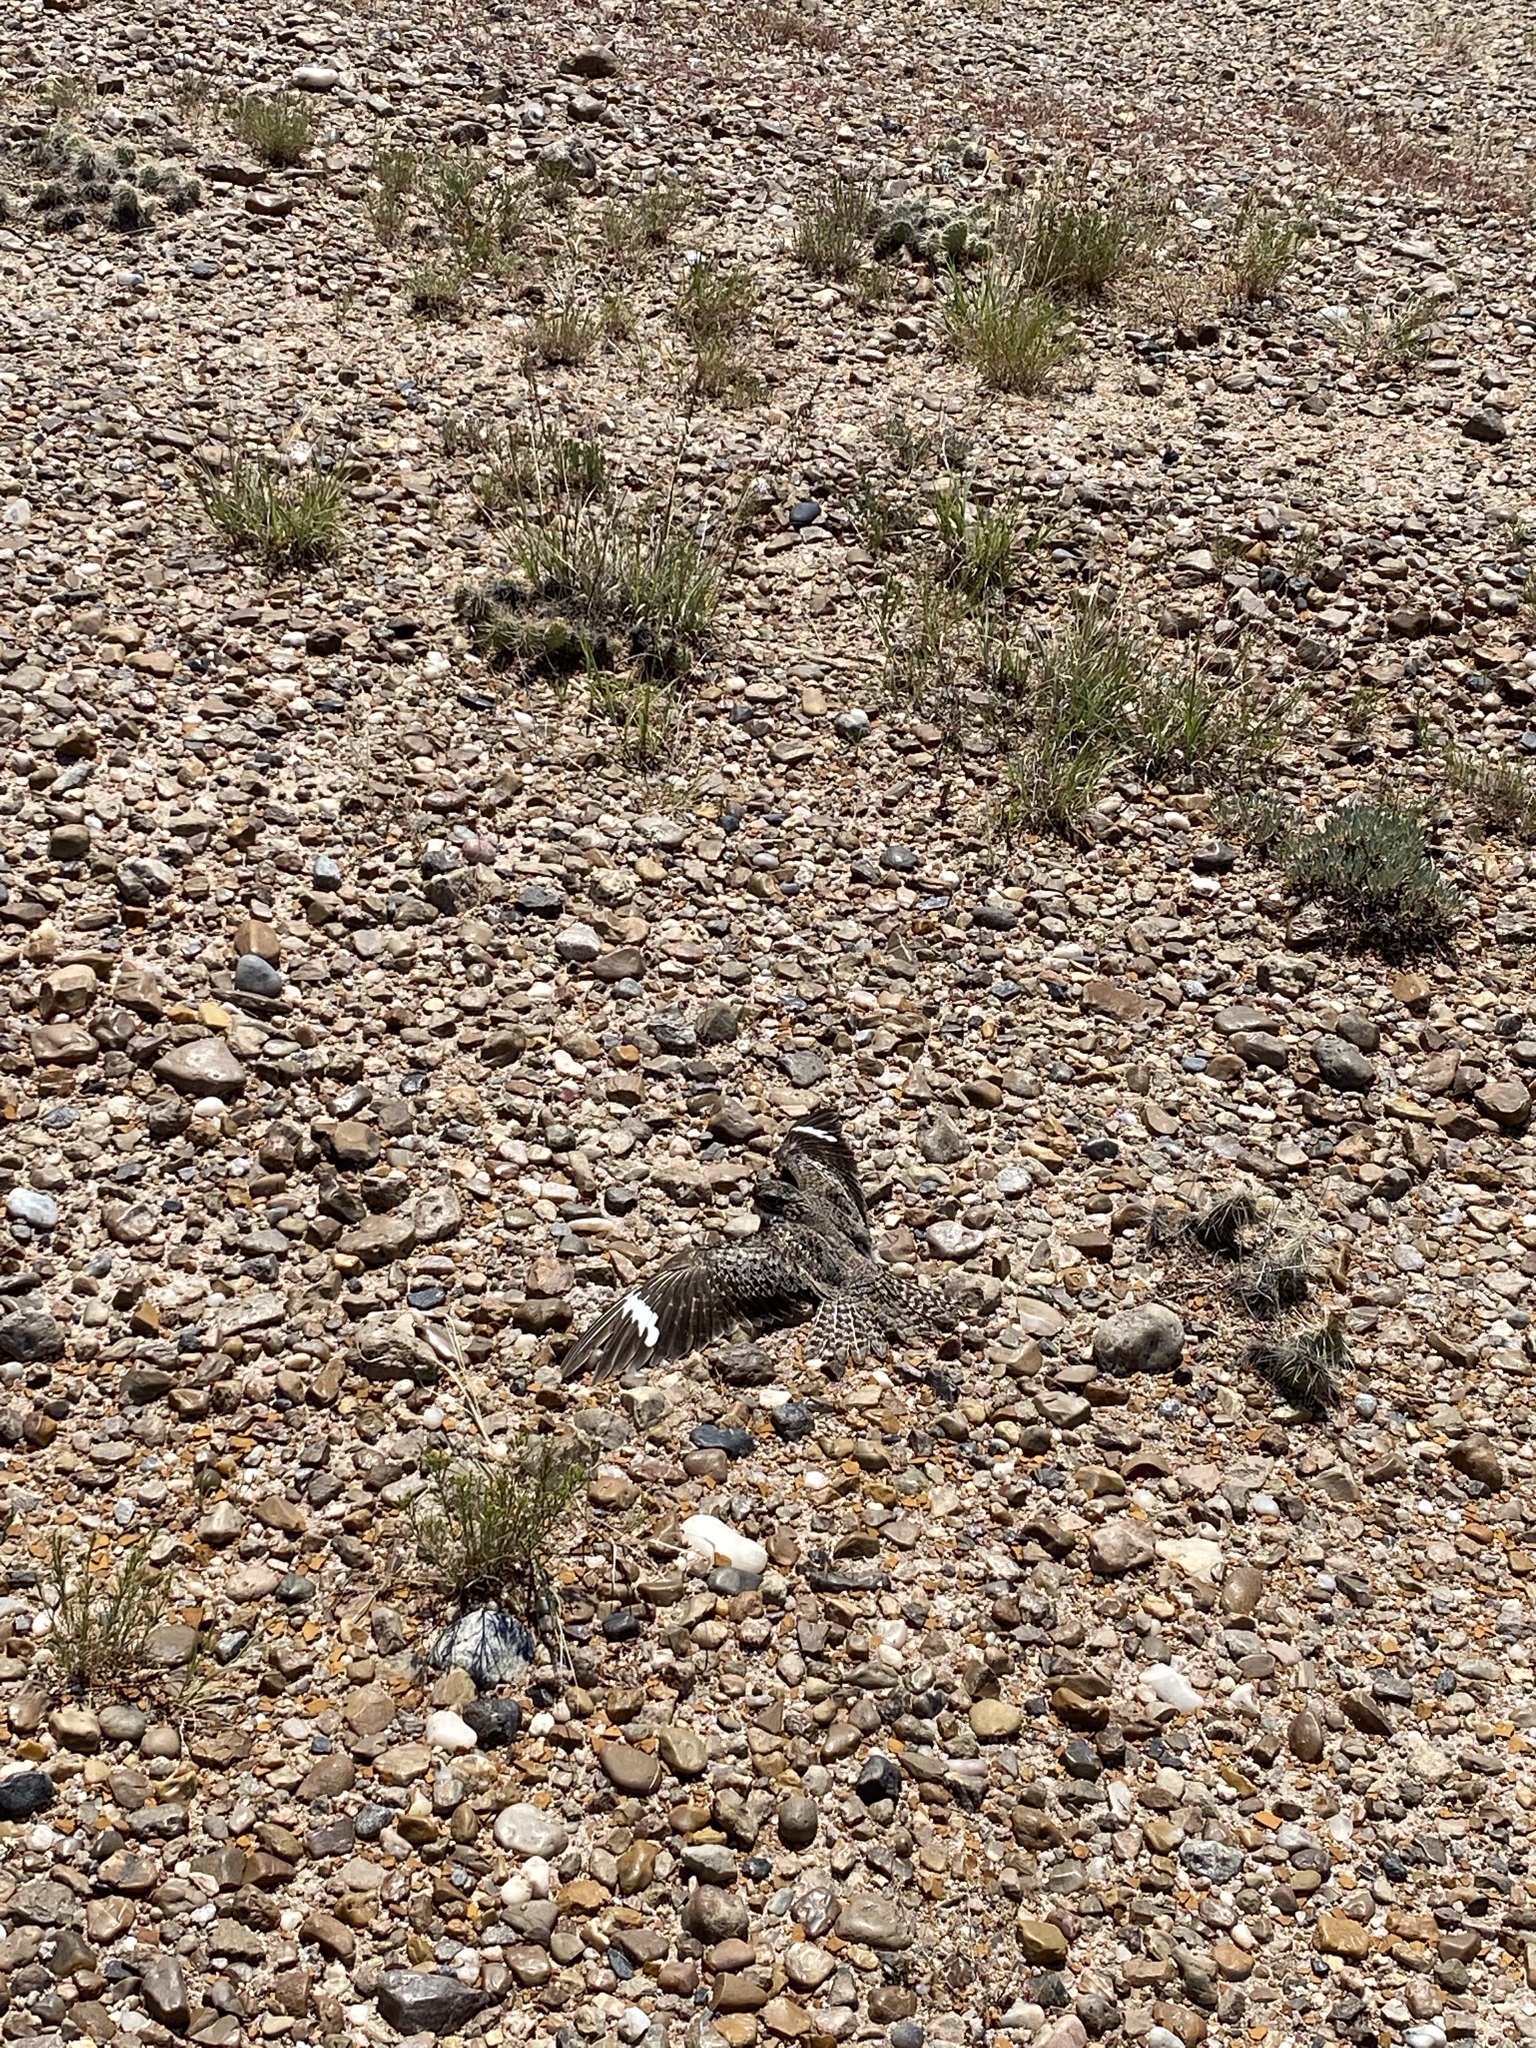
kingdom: Animalia
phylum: Chordata
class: Aves
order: Caprimulgiformes
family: Caprimulgidae
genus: Chordeiles
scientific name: Chordeiles minor
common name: Common nighthawk
